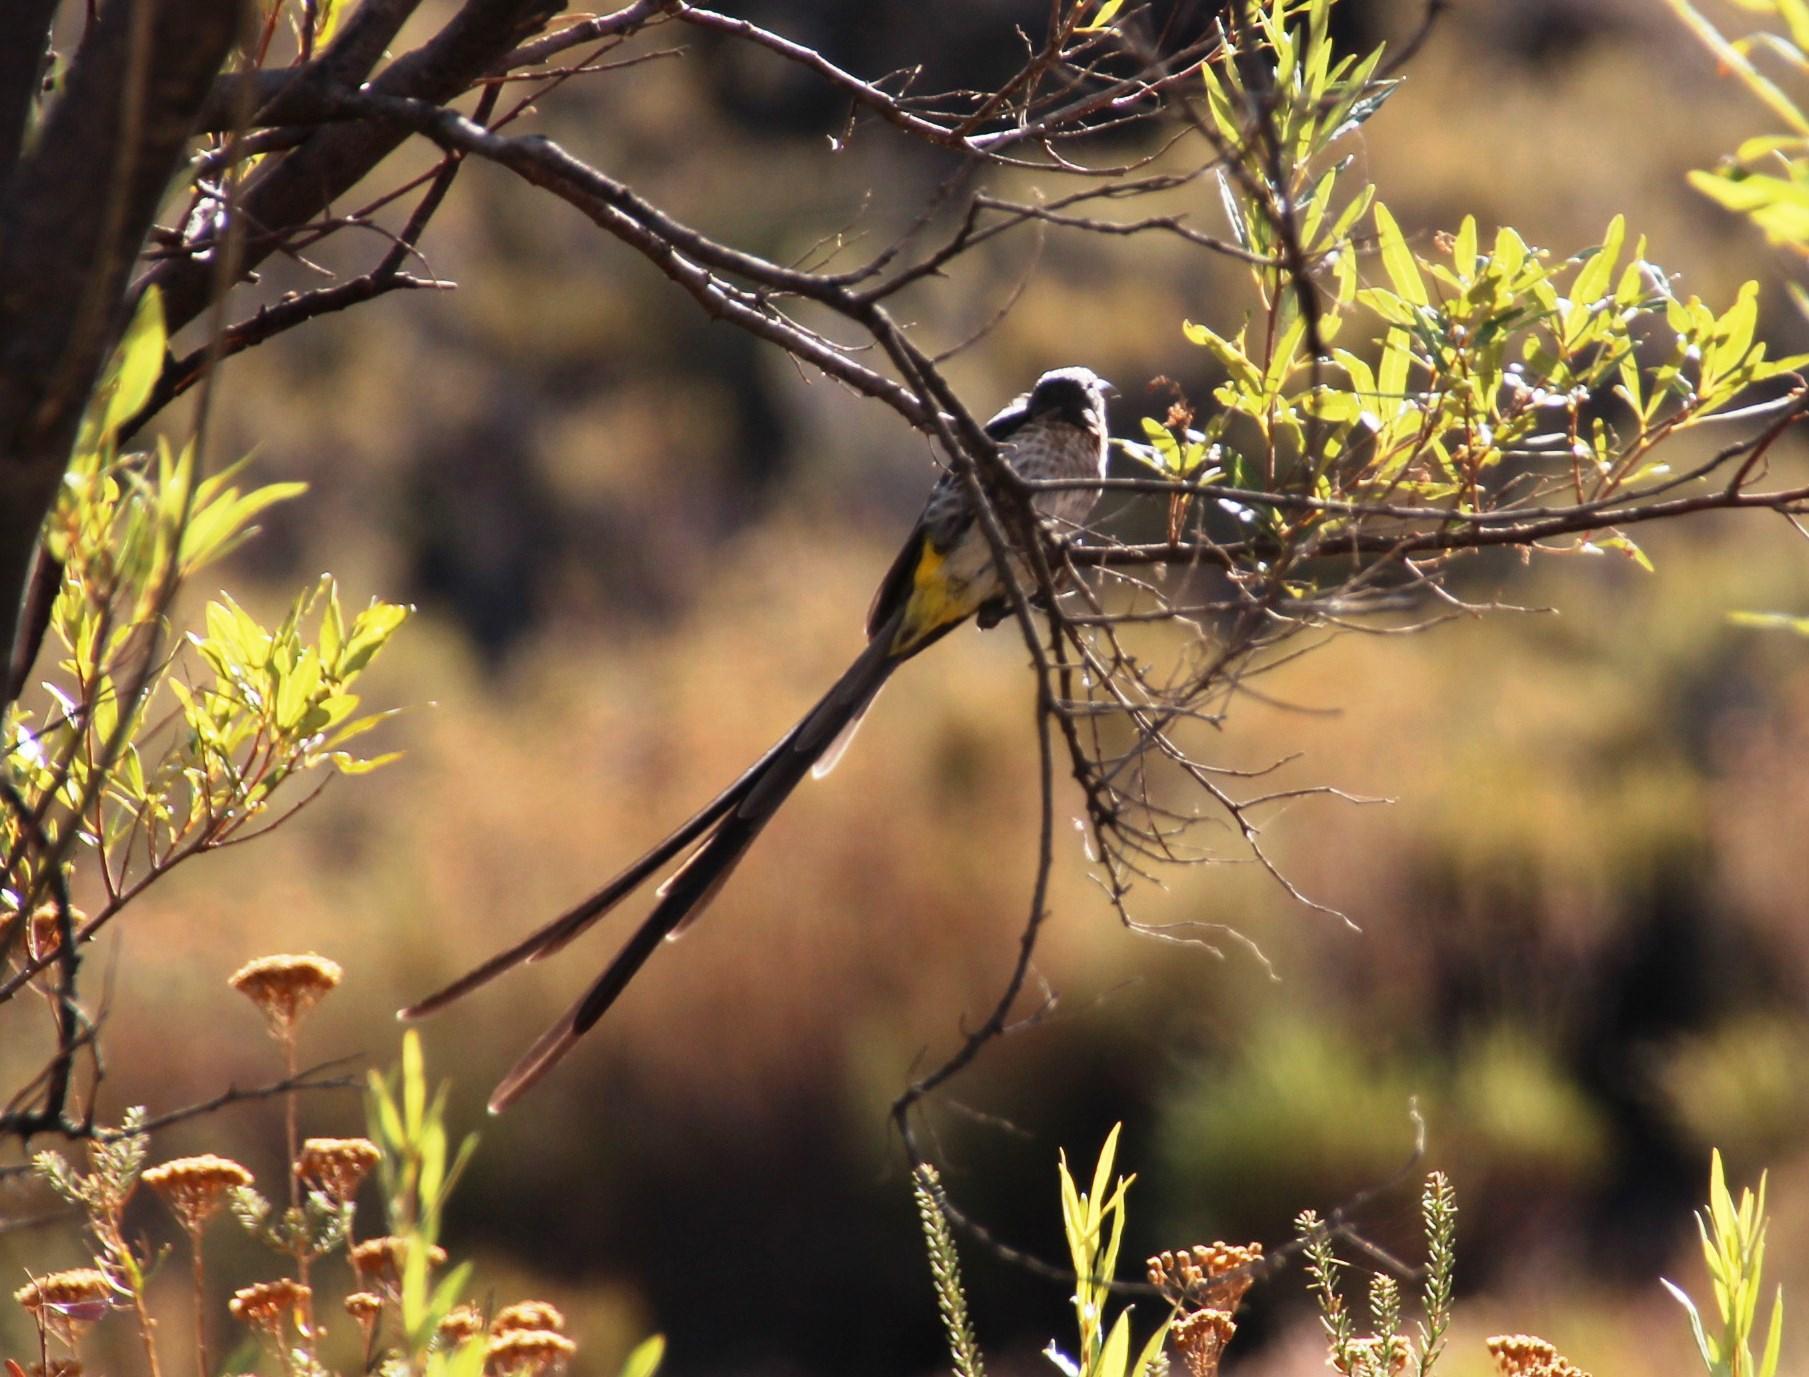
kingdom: Animalia
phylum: Chordata
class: Aves
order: Passeriformes
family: Promeropidae
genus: Promerops
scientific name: Promerops cafer
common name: Cape sugarbird
